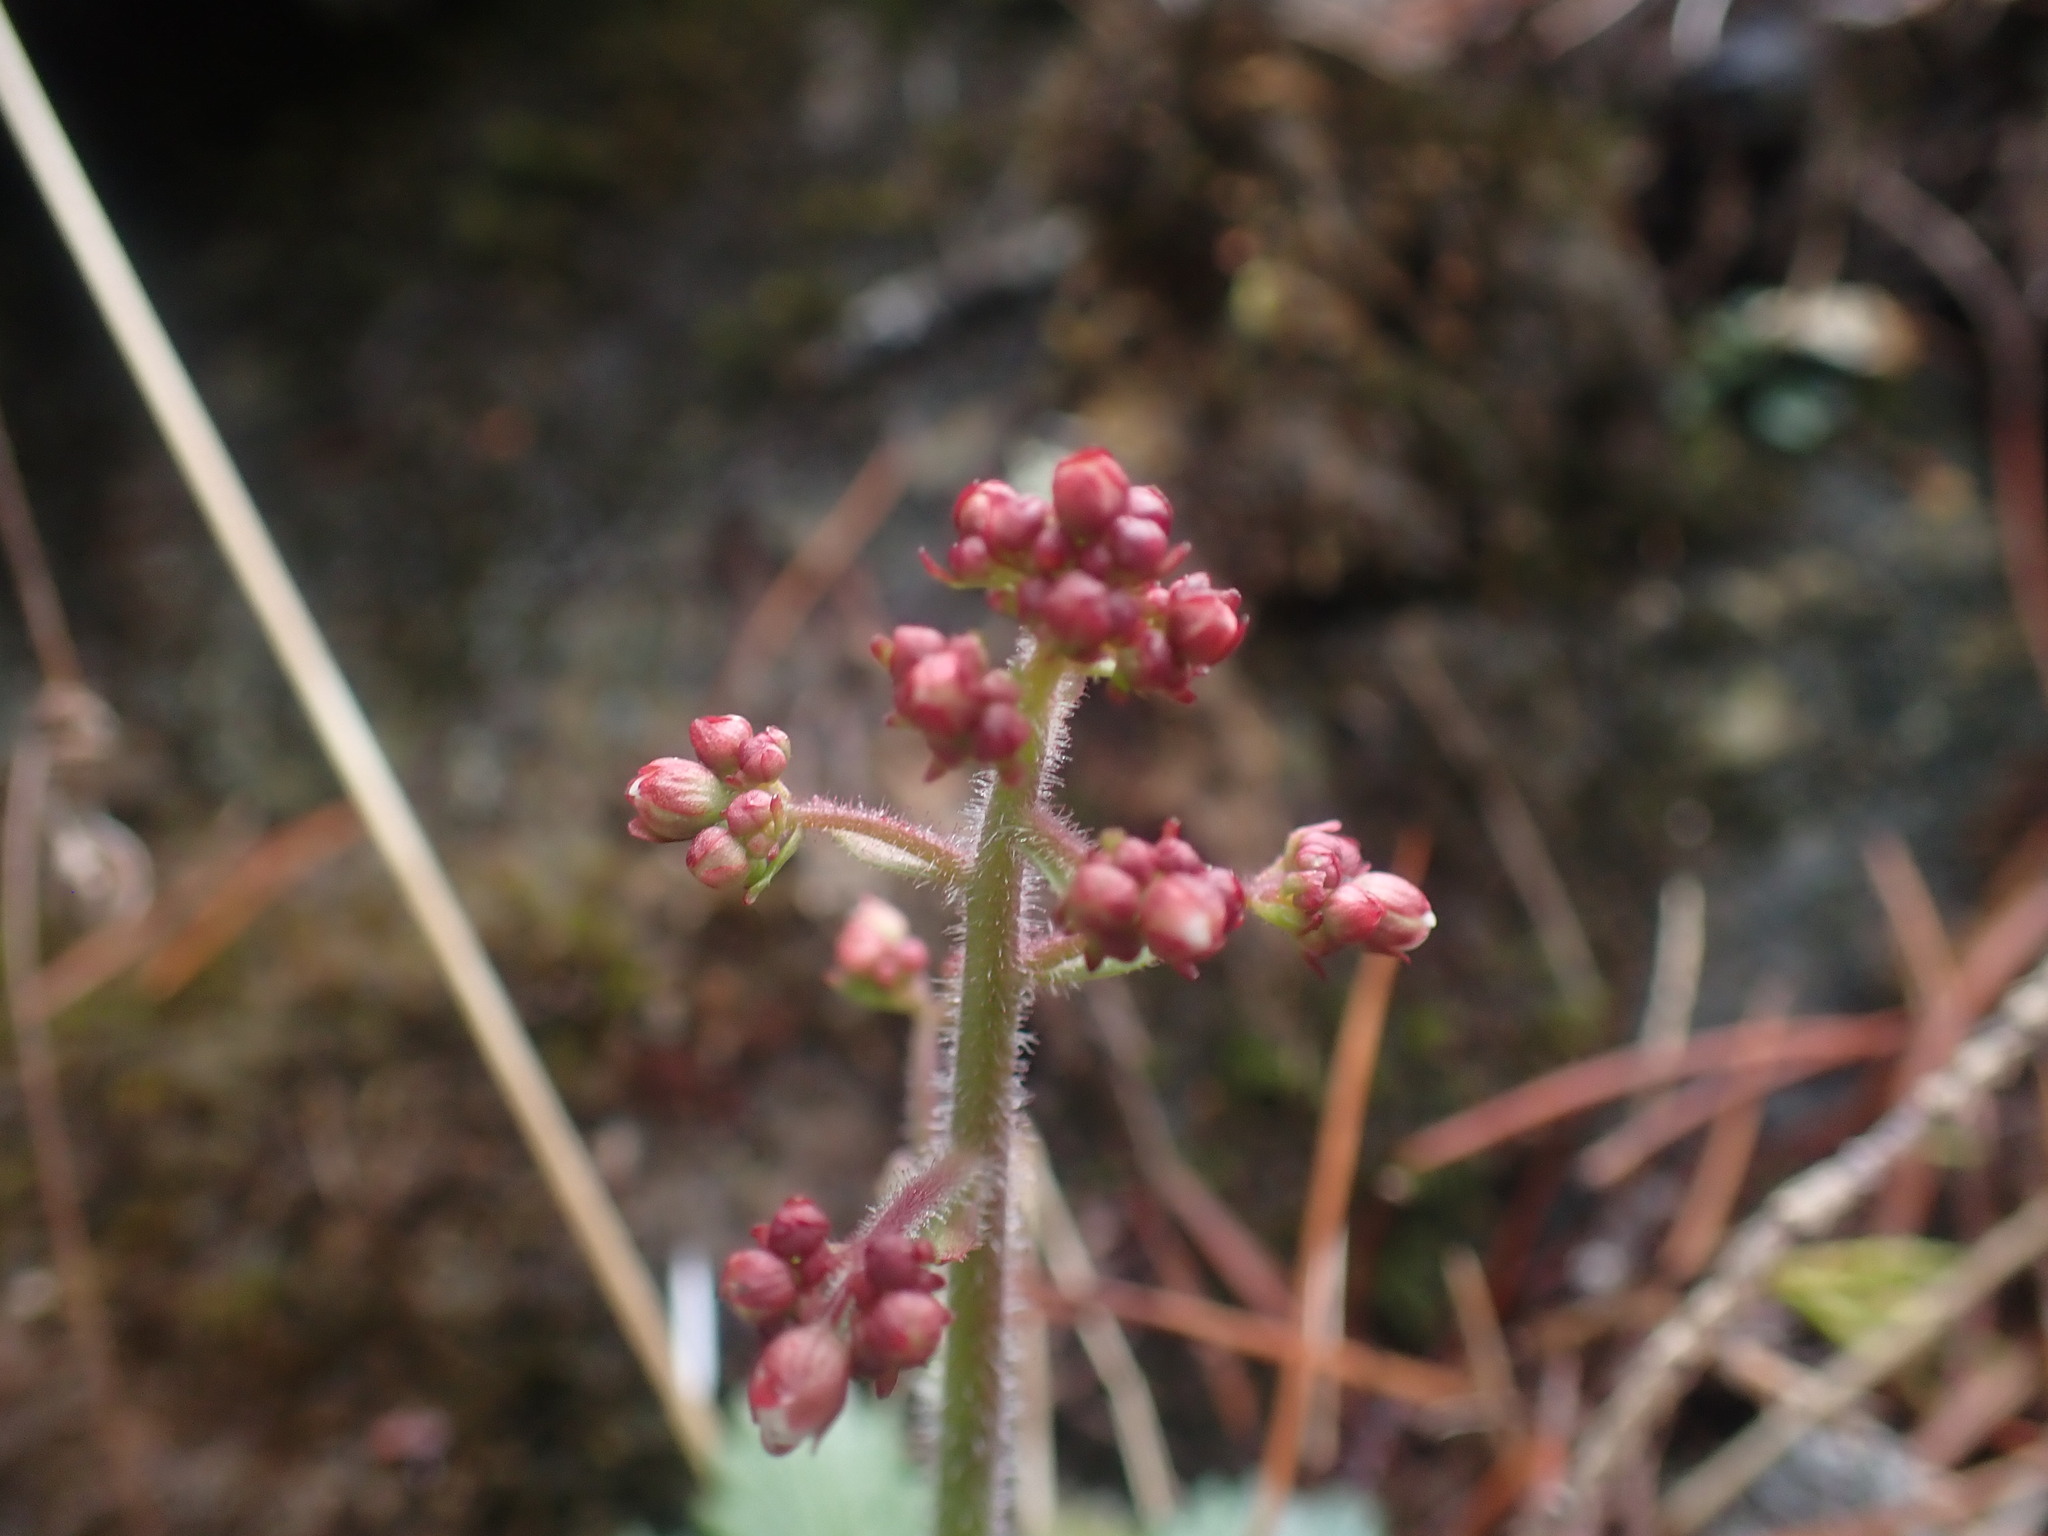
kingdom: Plantae
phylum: Tracheophyta
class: Magnoliopsida
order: Saxifragales
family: Saxifragaceae
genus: Micranthes
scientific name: Micranthes ferruginea
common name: Rusty saxifrage
